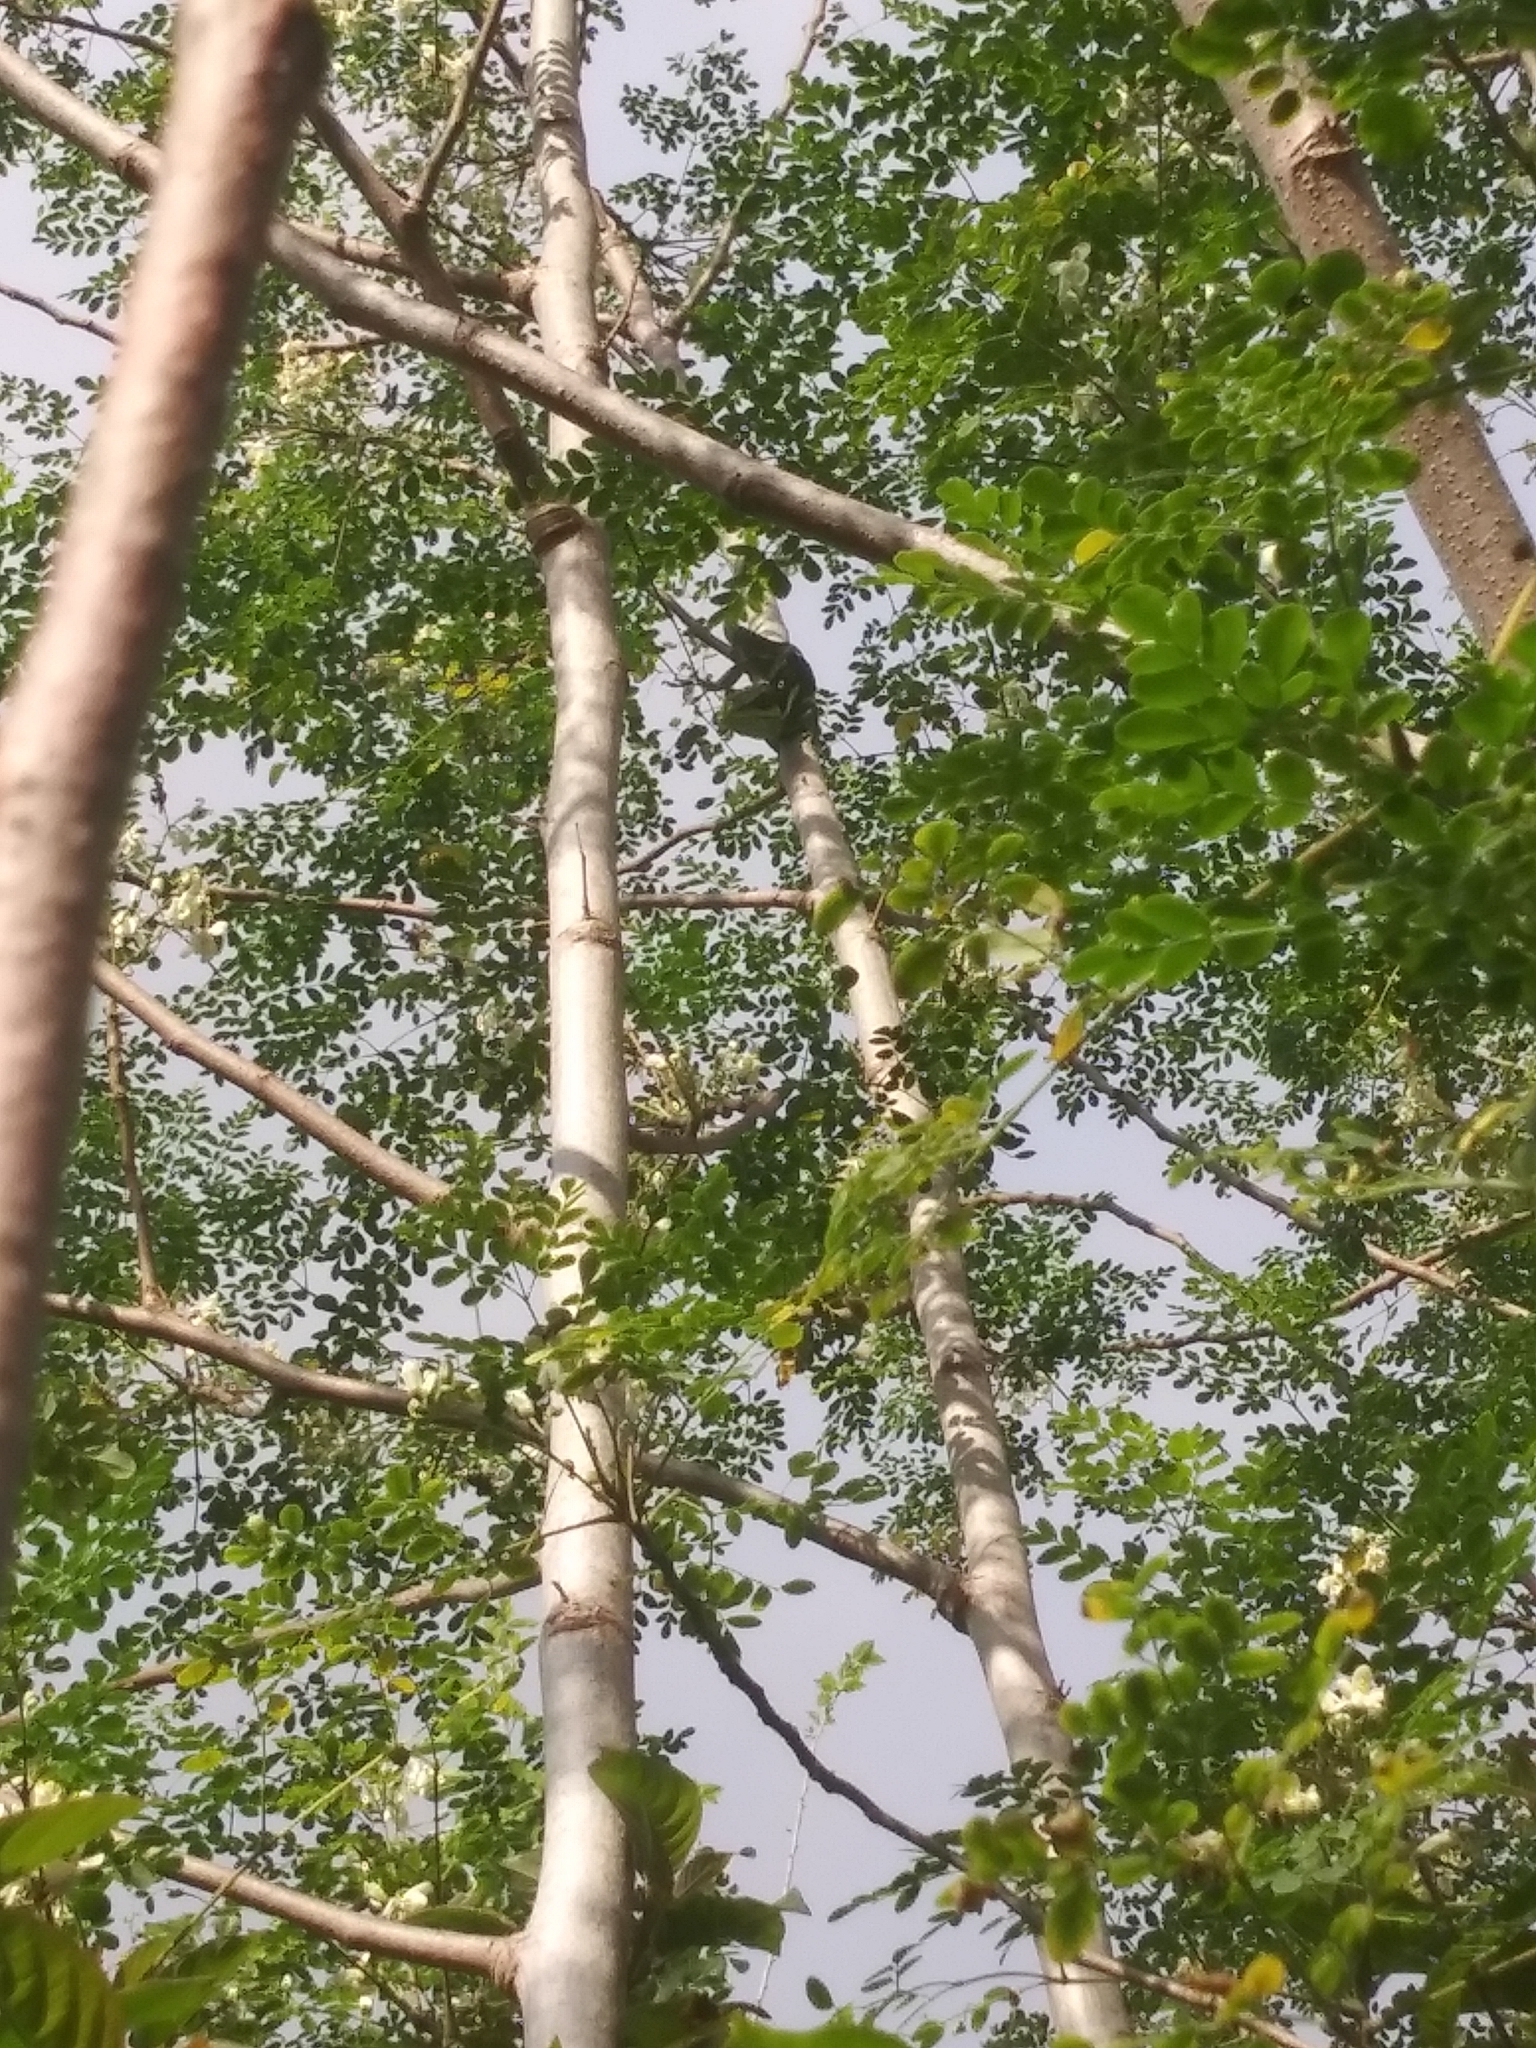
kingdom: Animalia
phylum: Chordata
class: Squamata
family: Dactyloidae
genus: Anolis
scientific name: Anolis equestris
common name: Knight anole
